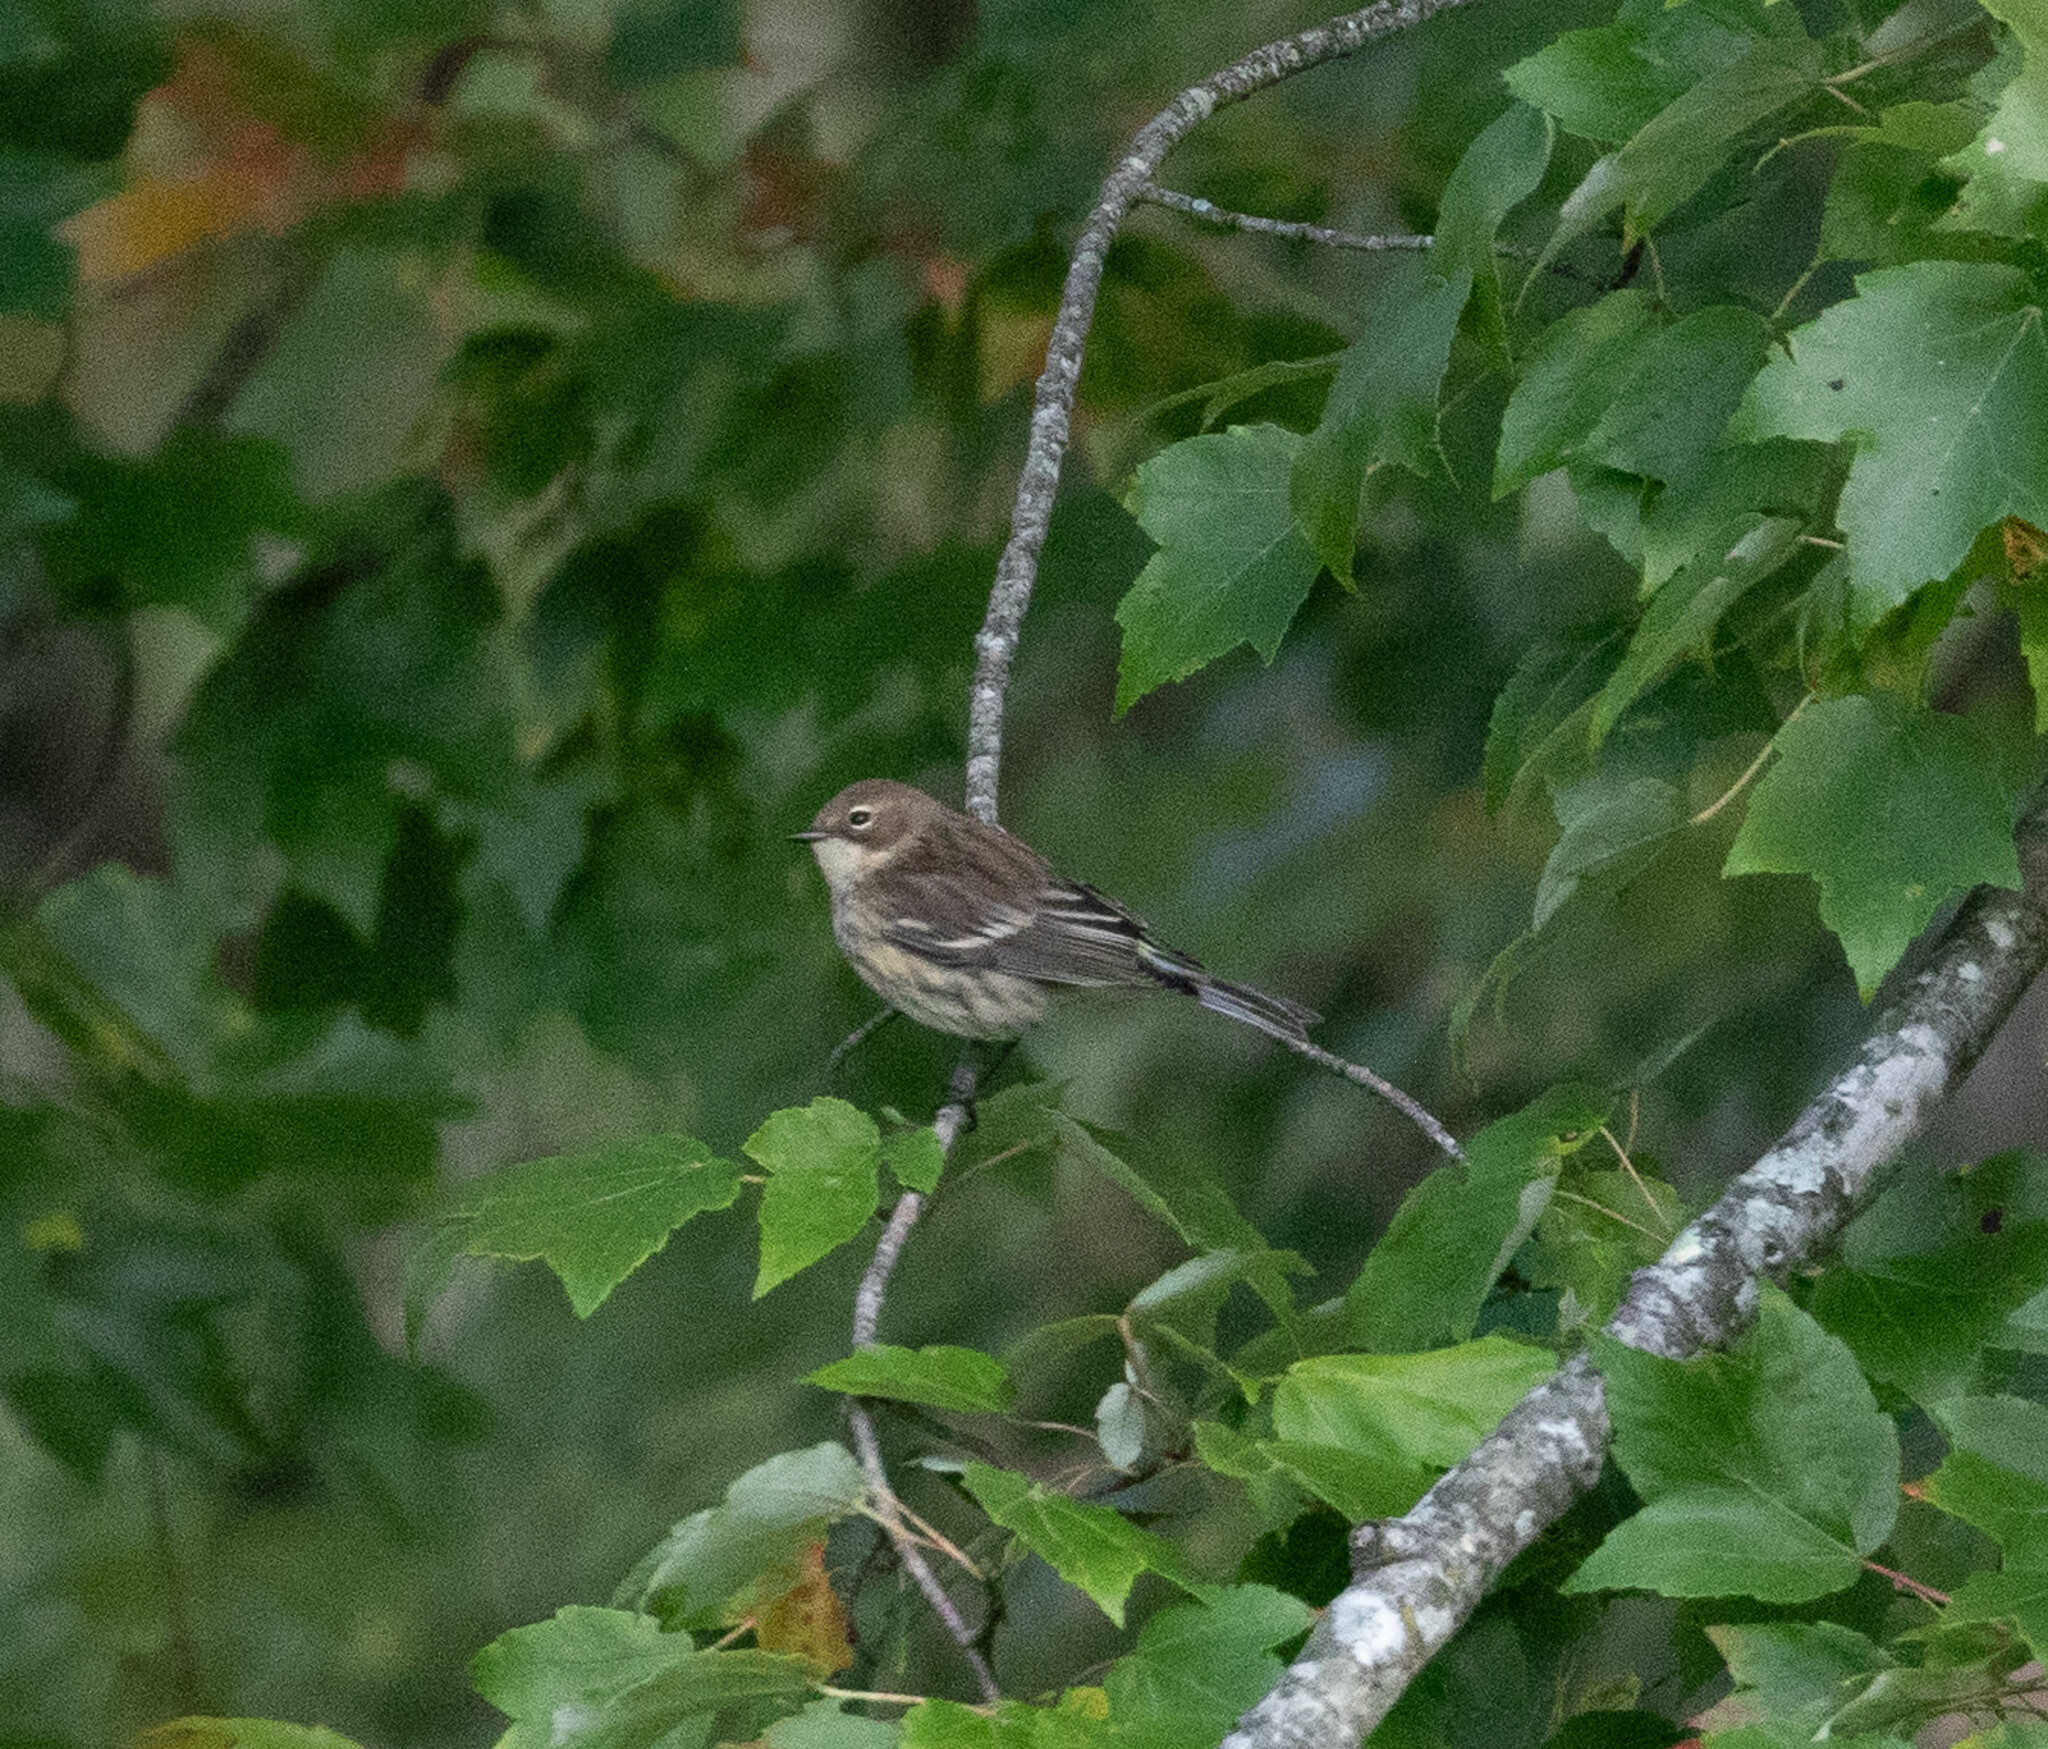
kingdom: Animalia
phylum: Chordata
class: Aves
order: Passeriformes
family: Parulidae
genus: Setophaga
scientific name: Setophaga coronata
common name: Myrtle warbler
